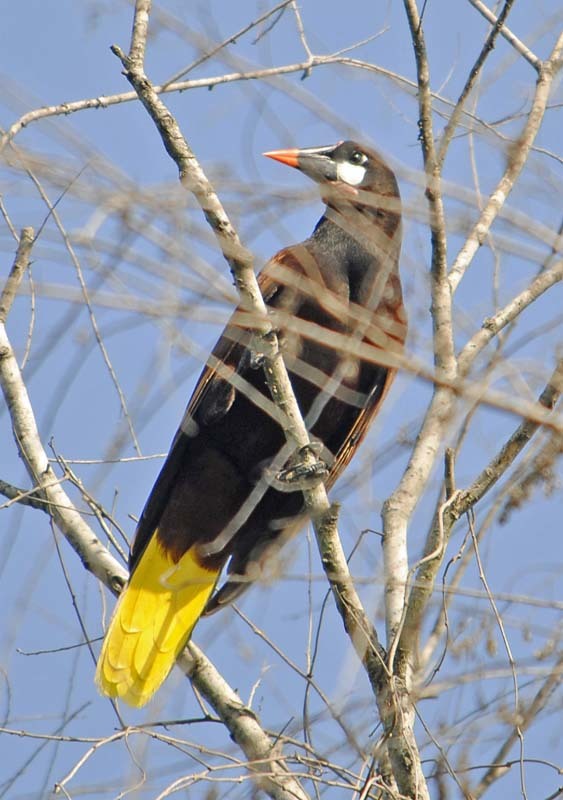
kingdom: Animalia
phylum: Chordata
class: Aves
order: Passeriformes
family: Icteridae
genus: Psarocolius
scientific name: Psarocolius montezuma
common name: Montezuma oropendola
